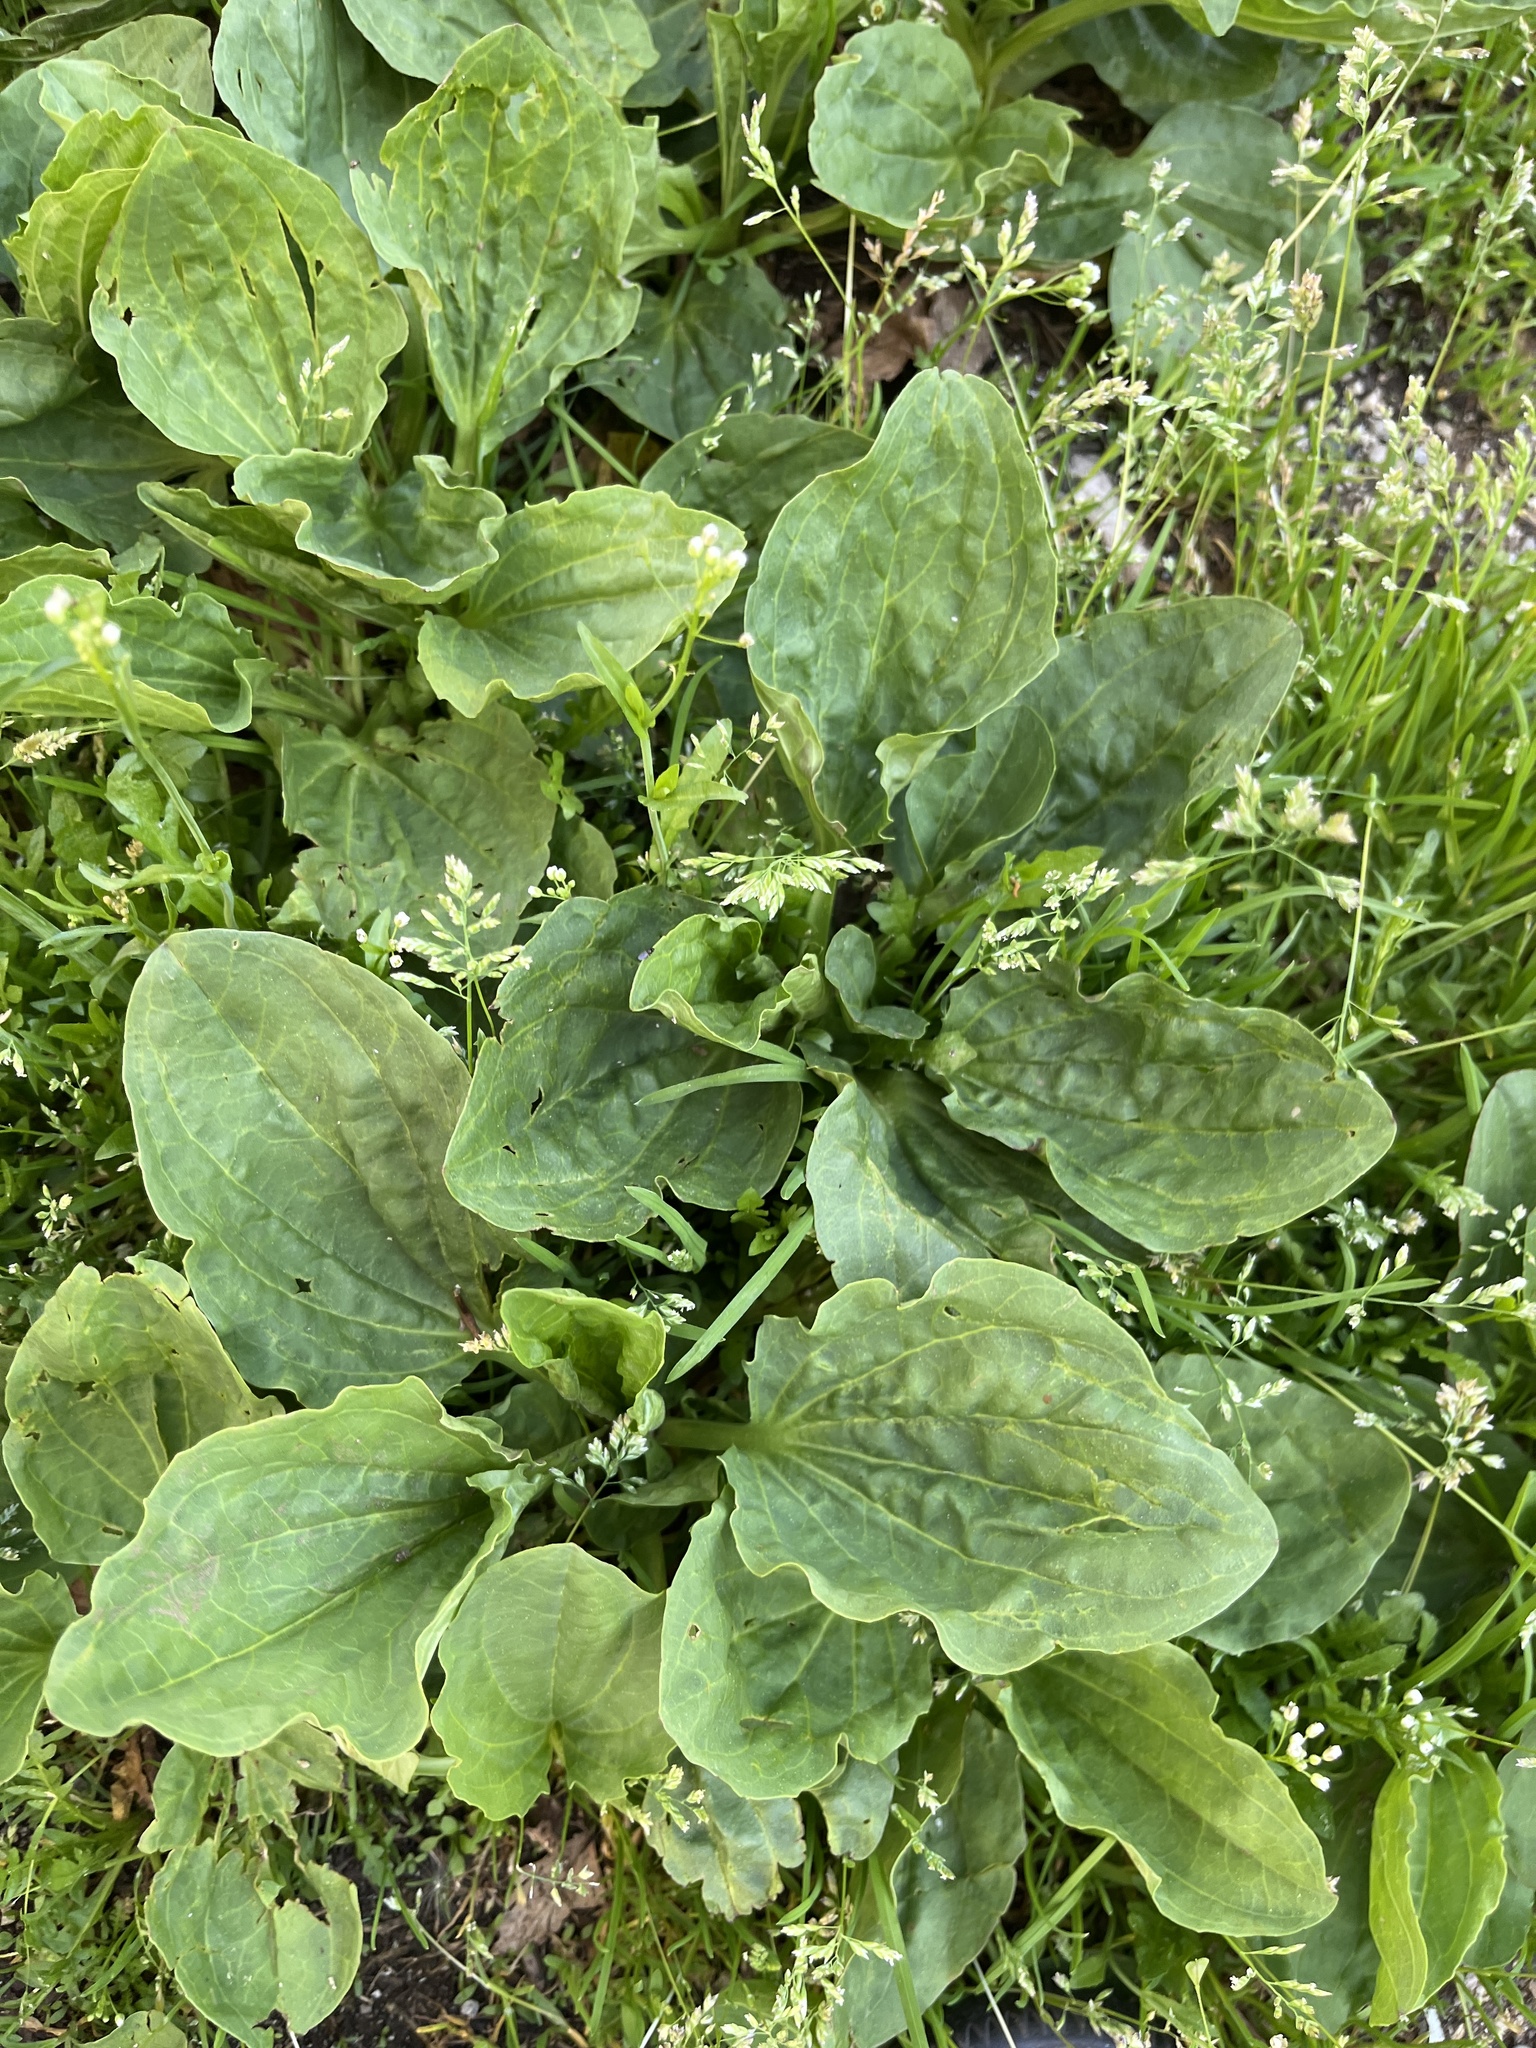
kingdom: Plantae
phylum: Tracheophyta
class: Magnoliopsida
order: Lamiales
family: Plantaginaceae
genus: Plantago
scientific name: Plantago major
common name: Common plantain
